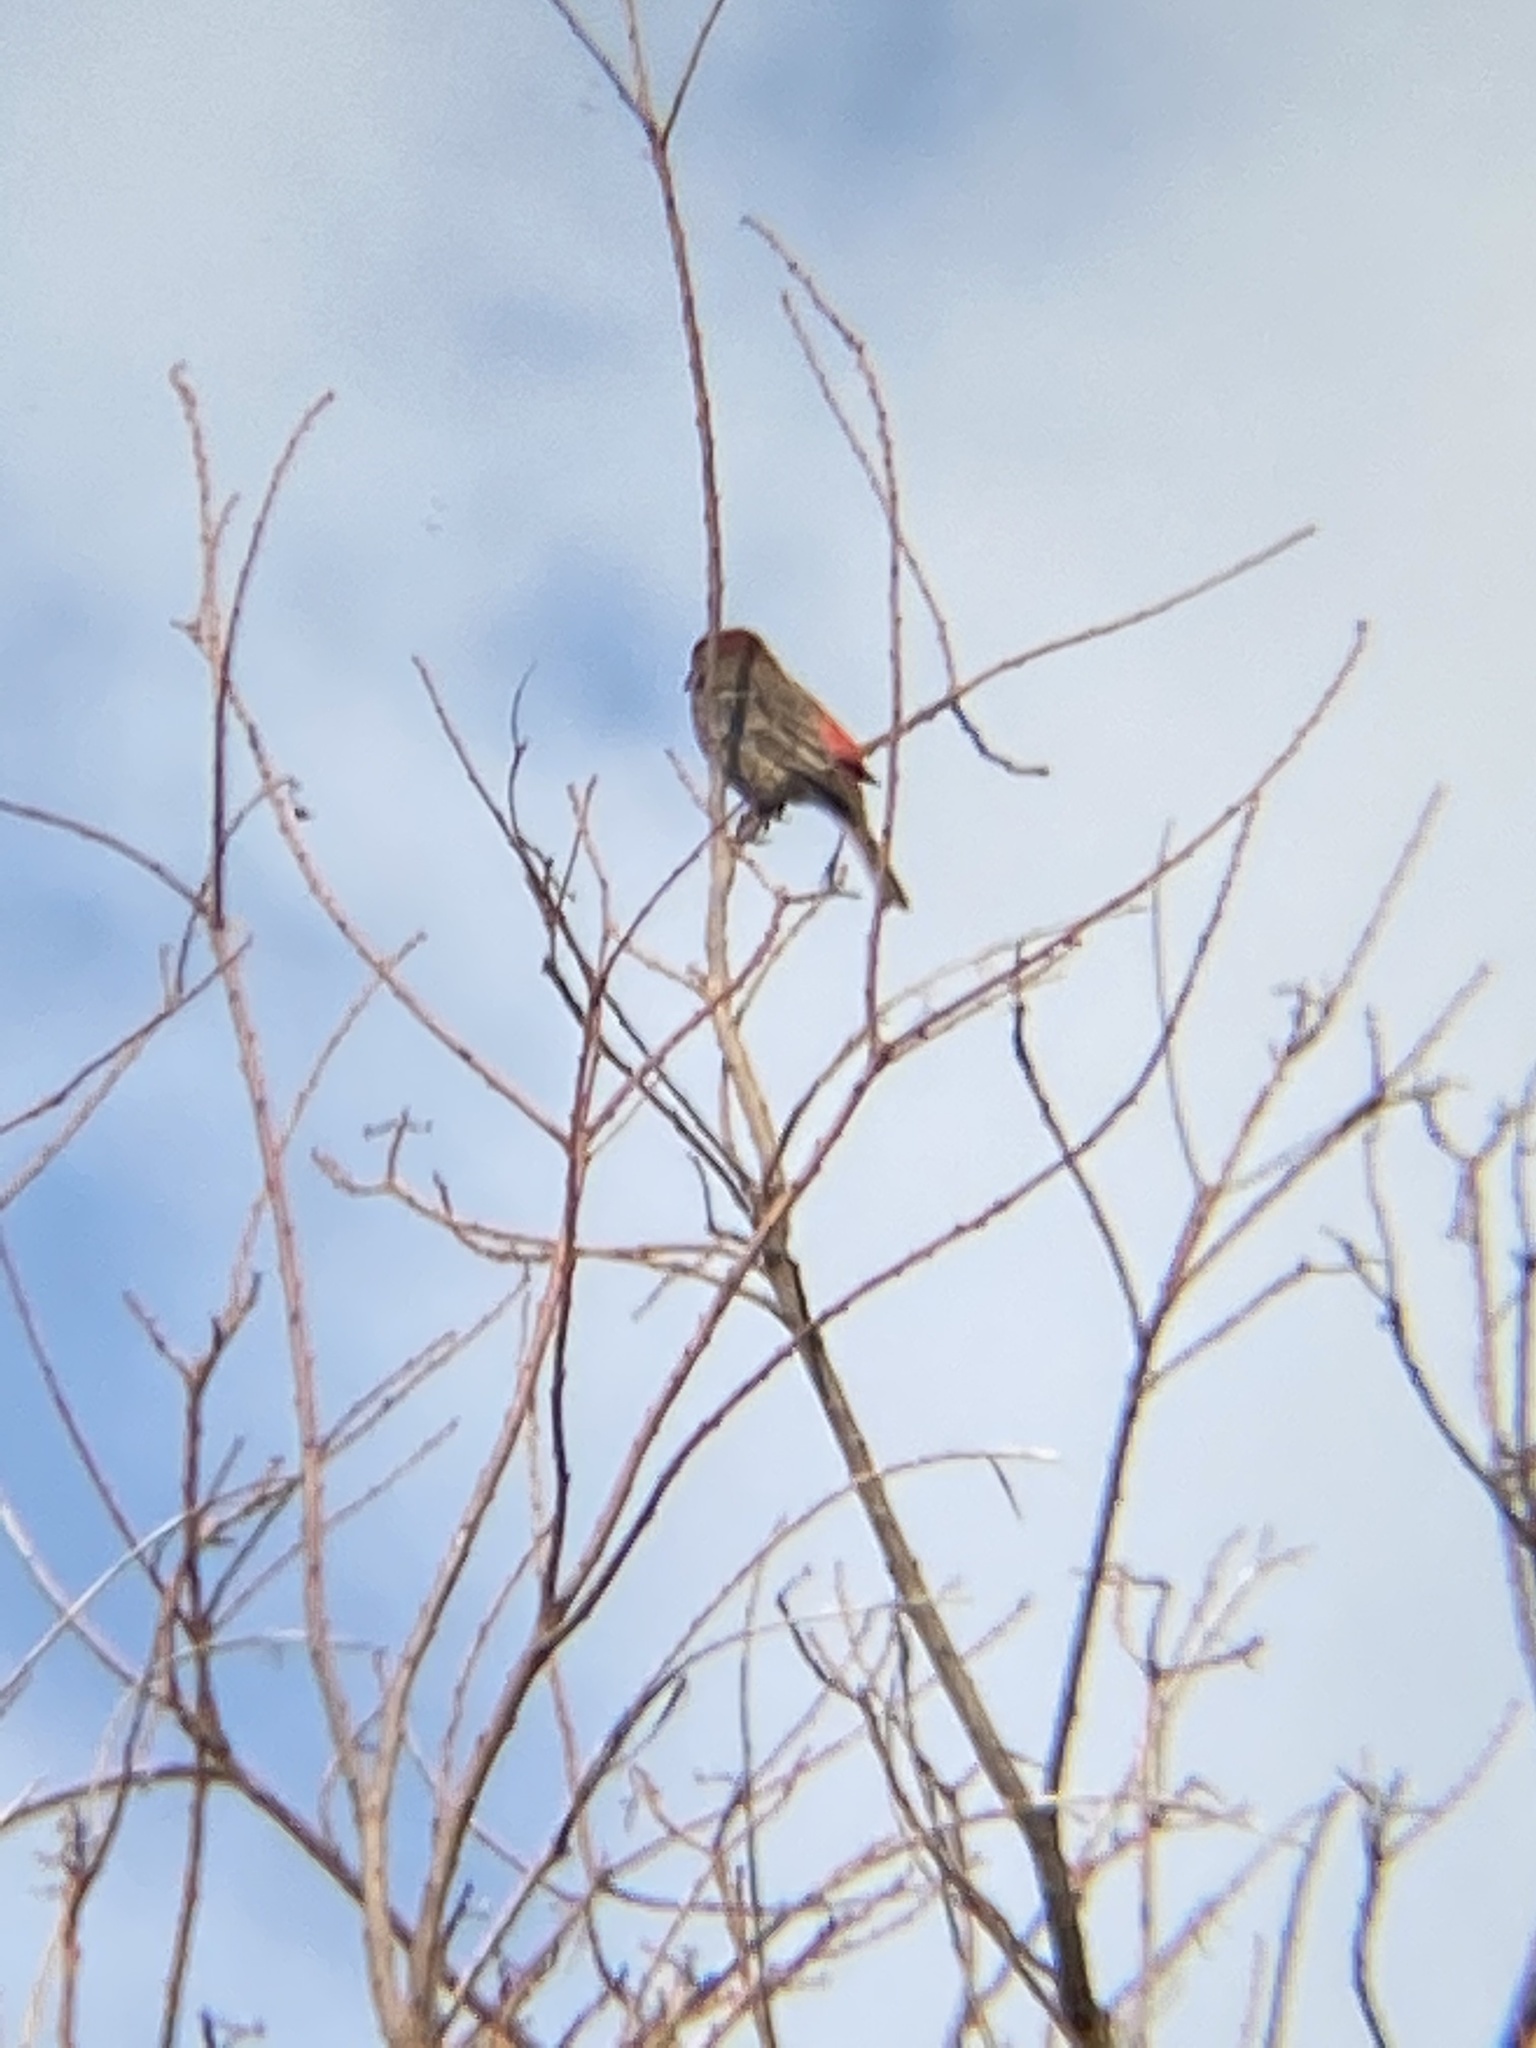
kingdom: Animalia
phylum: Chordata
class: Aves
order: Passeriformes
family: Fringillidae
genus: Haemorhous
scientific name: Haemorhous mexicanus
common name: House finch
